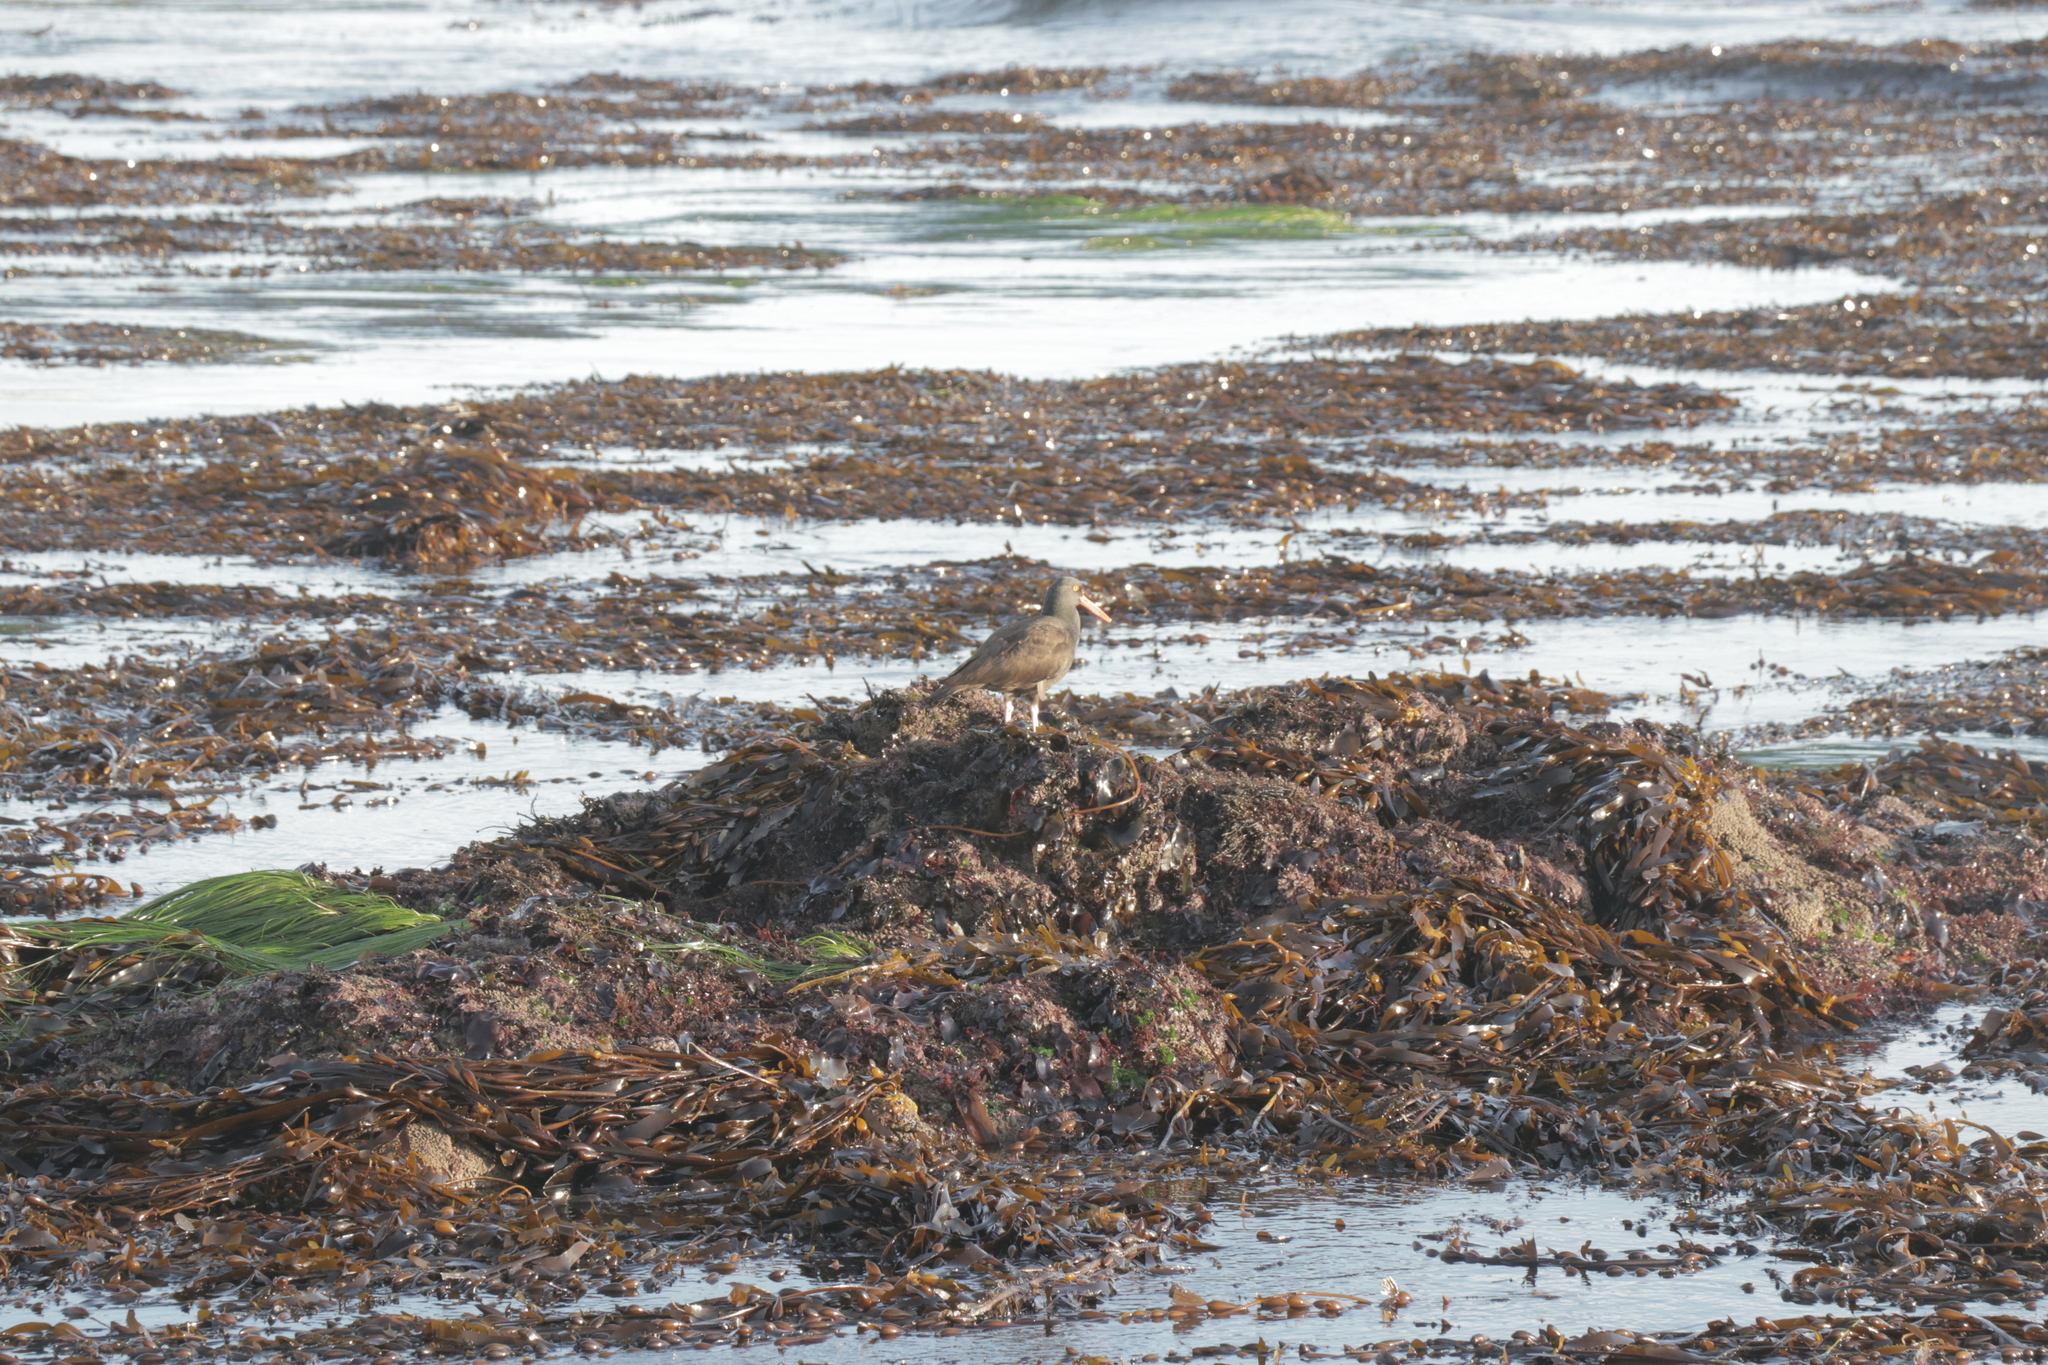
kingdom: Animalia
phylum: Chordata
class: Aves
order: Charadriiformes
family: Haematopodidae
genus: Haematopus
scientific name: Haematopus bachmani
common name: Black oystercatcher
